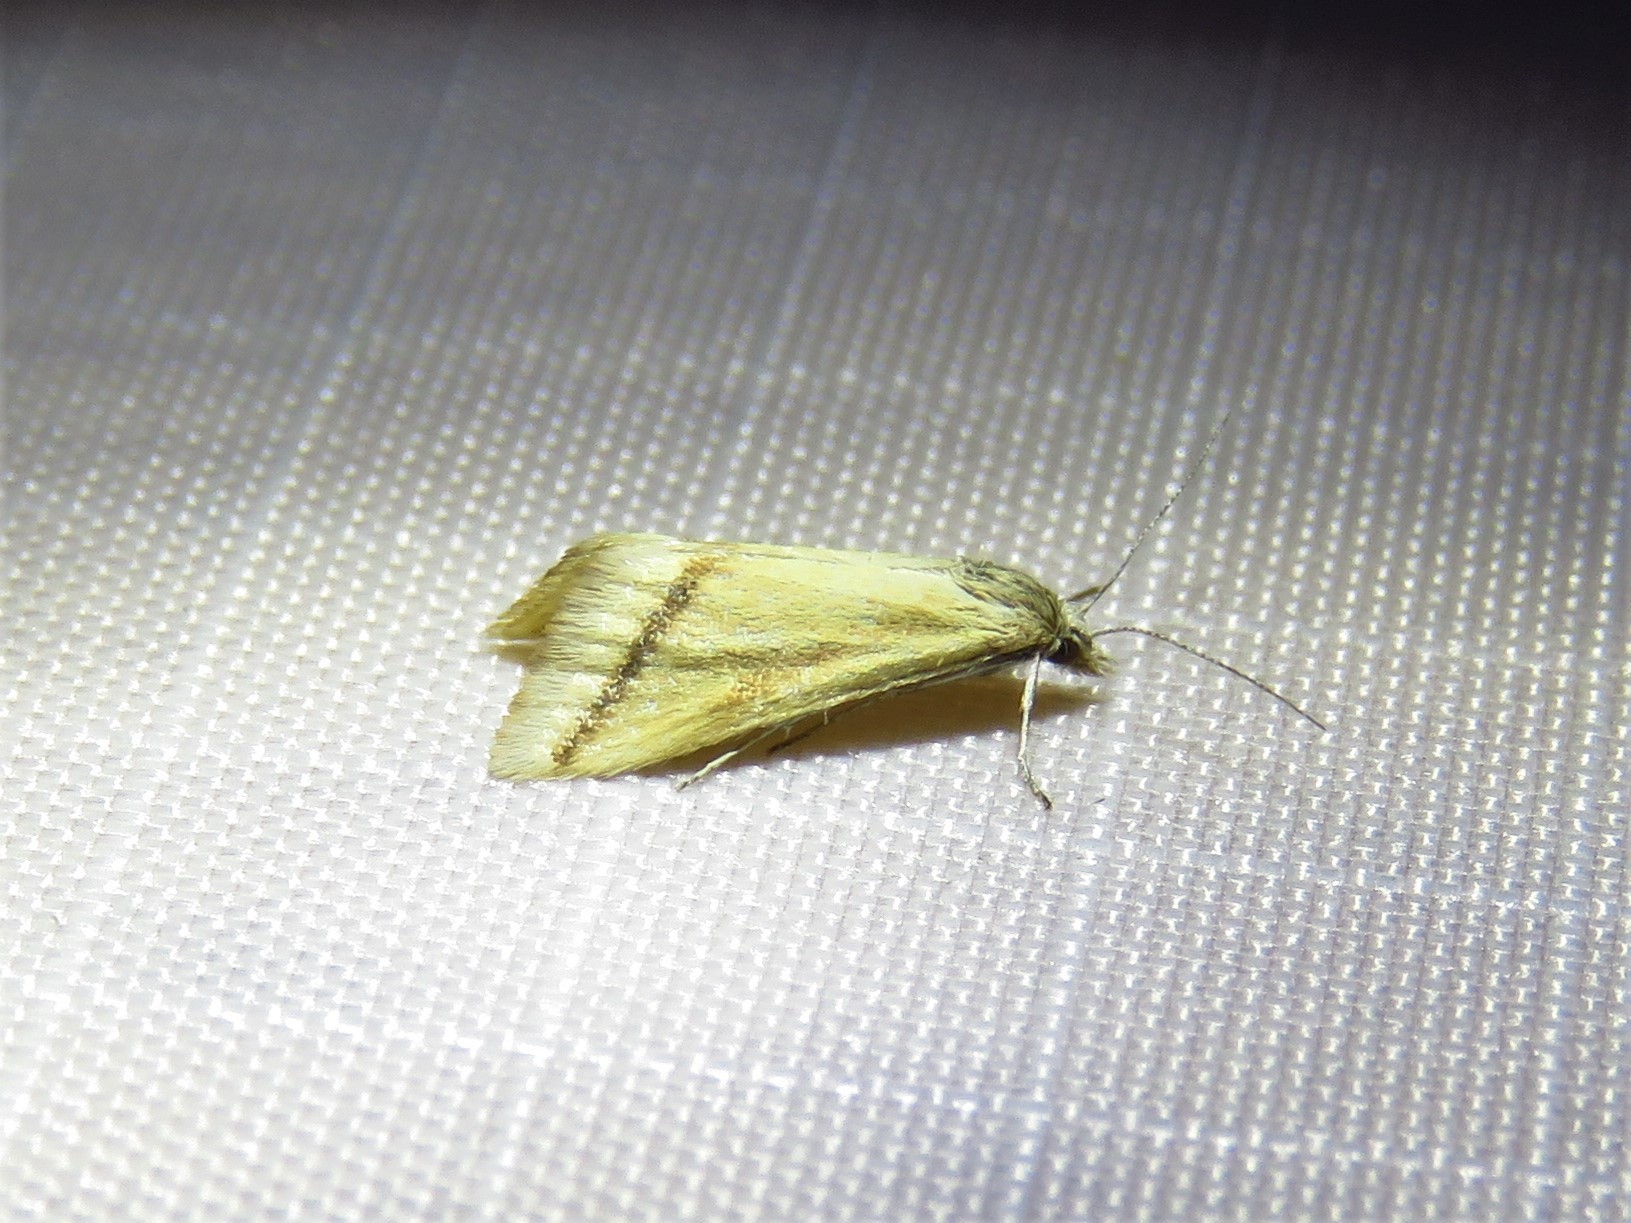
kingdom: Animalia
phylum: Arthropoda
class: Insecta
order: Lepidoptera
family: Crambidae
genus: Microtheoris
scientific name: Microtheoris vibicalis
